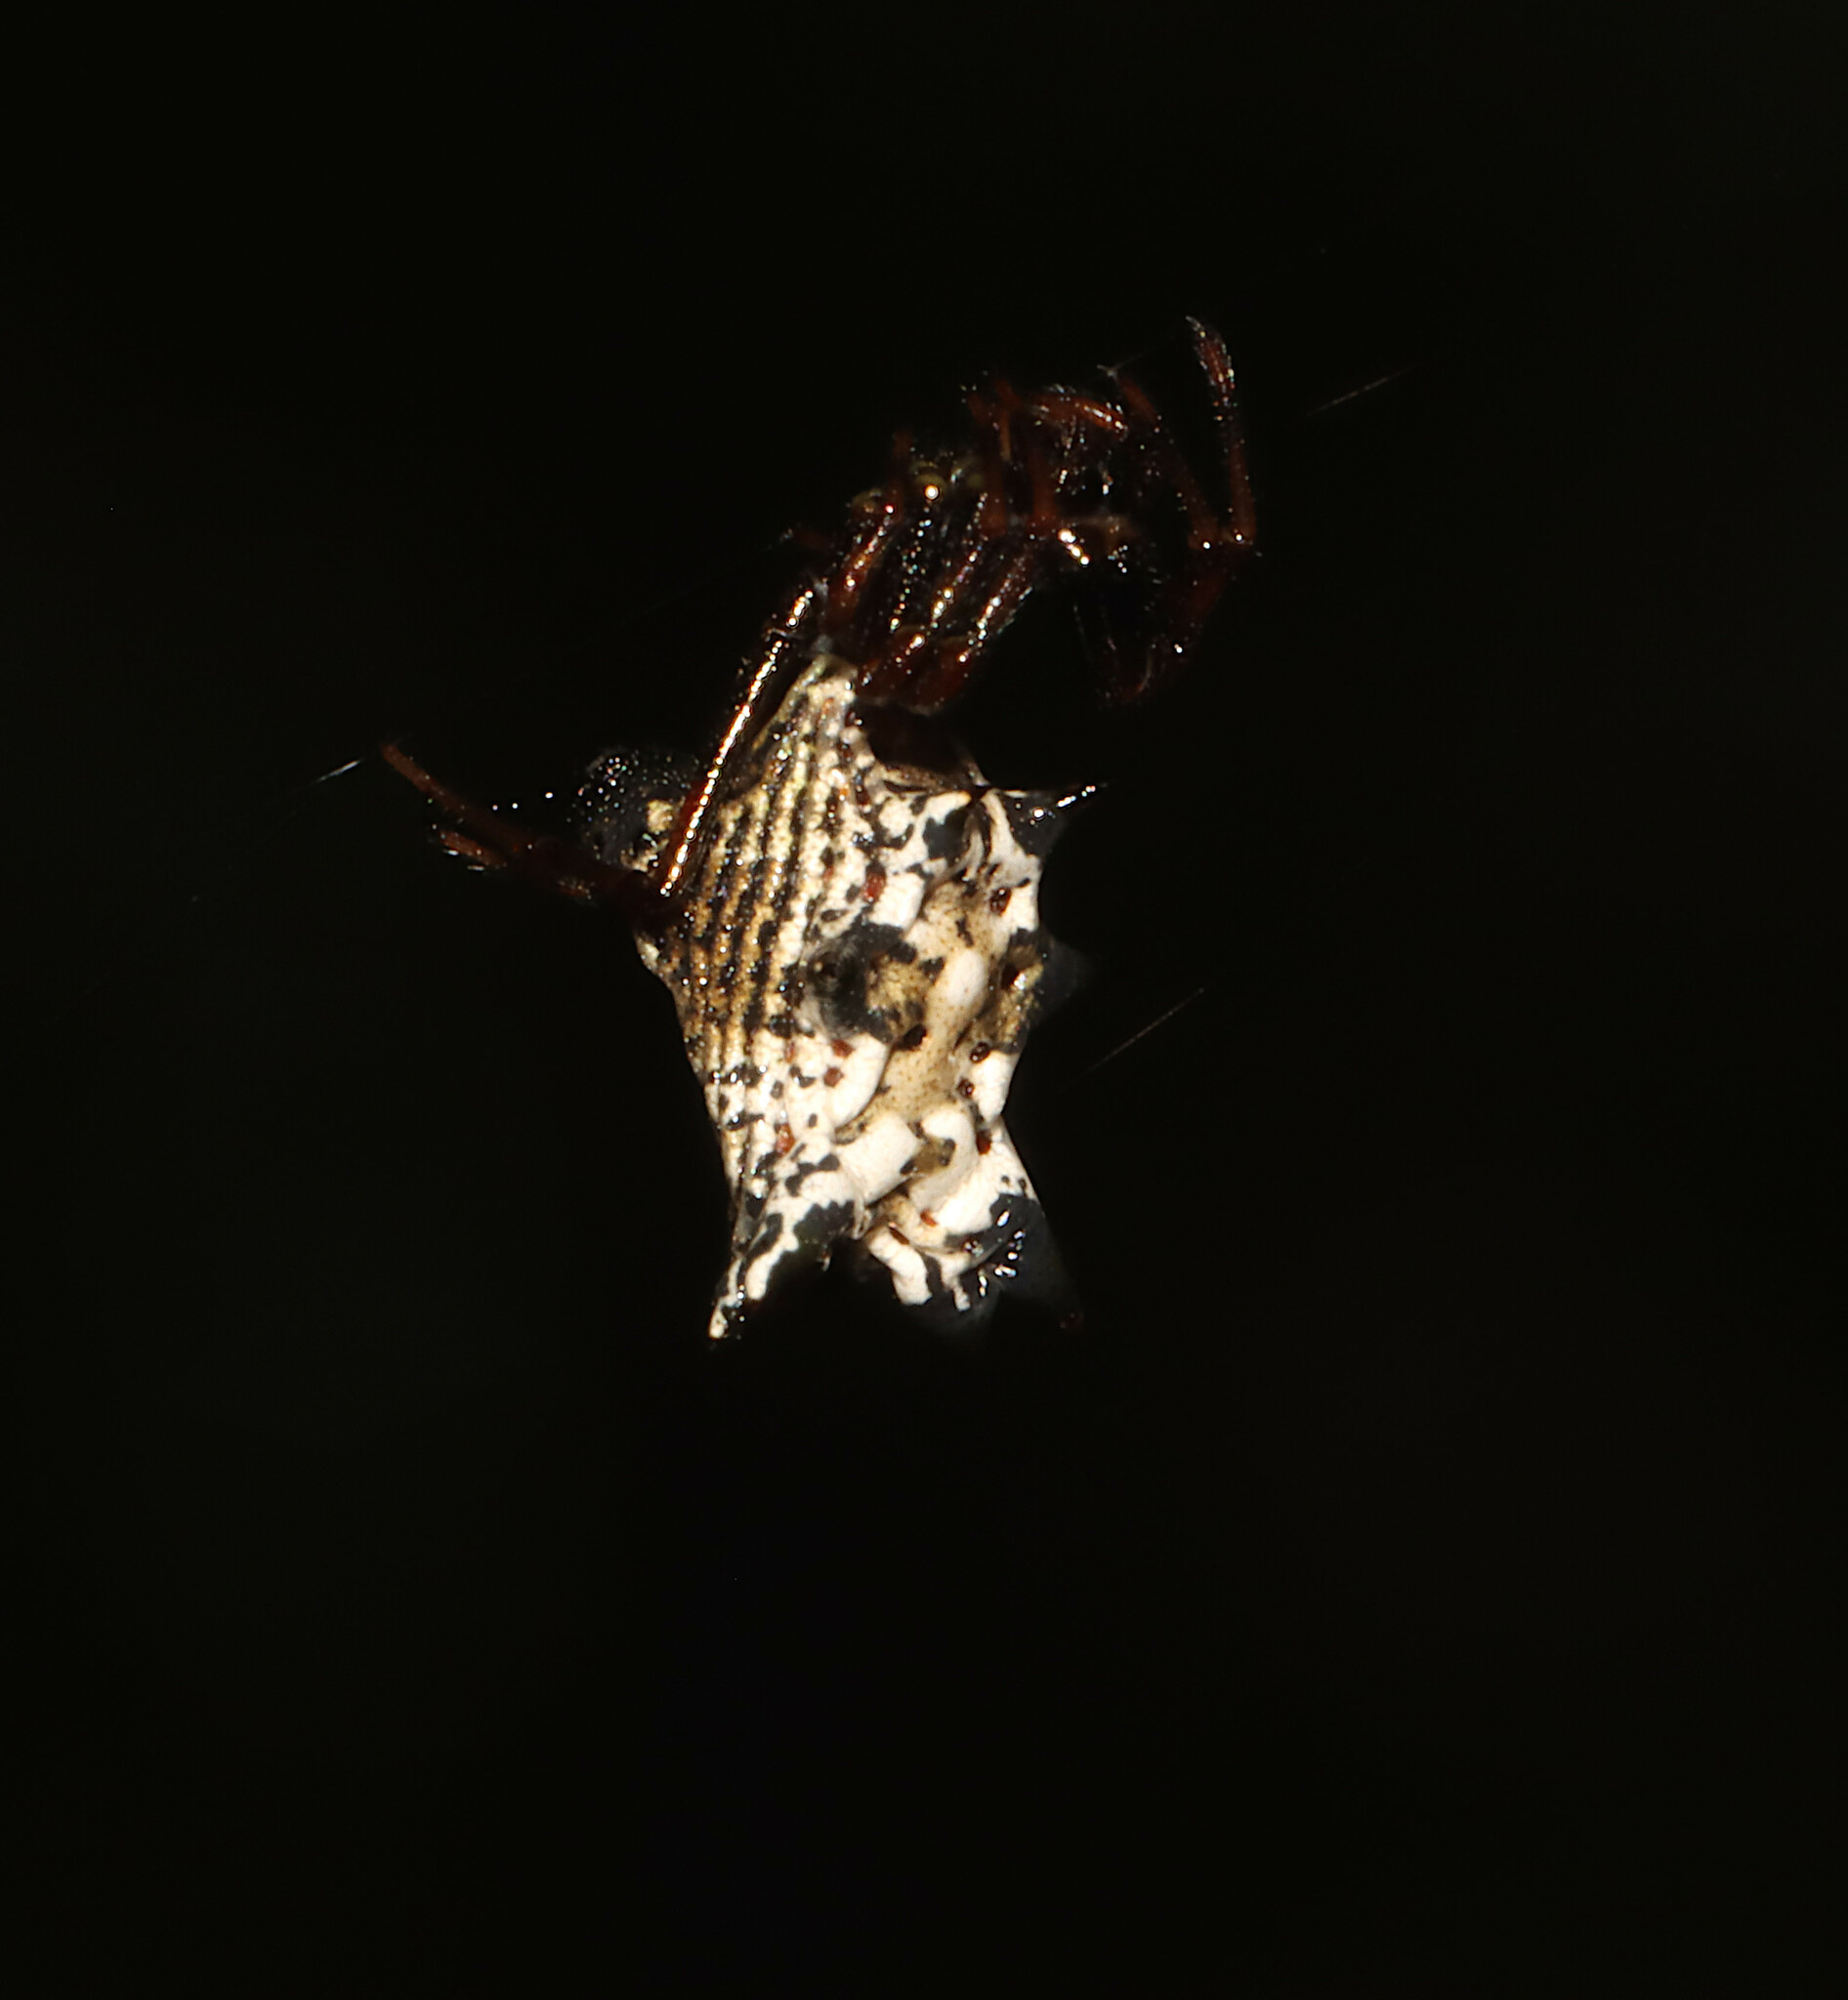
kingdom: Animalia
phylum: Arthropoda
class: Arachnida
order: Araneae
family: Araneidae
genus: Micrathena
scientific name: Micrathena gracilis
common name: Orb weavers
